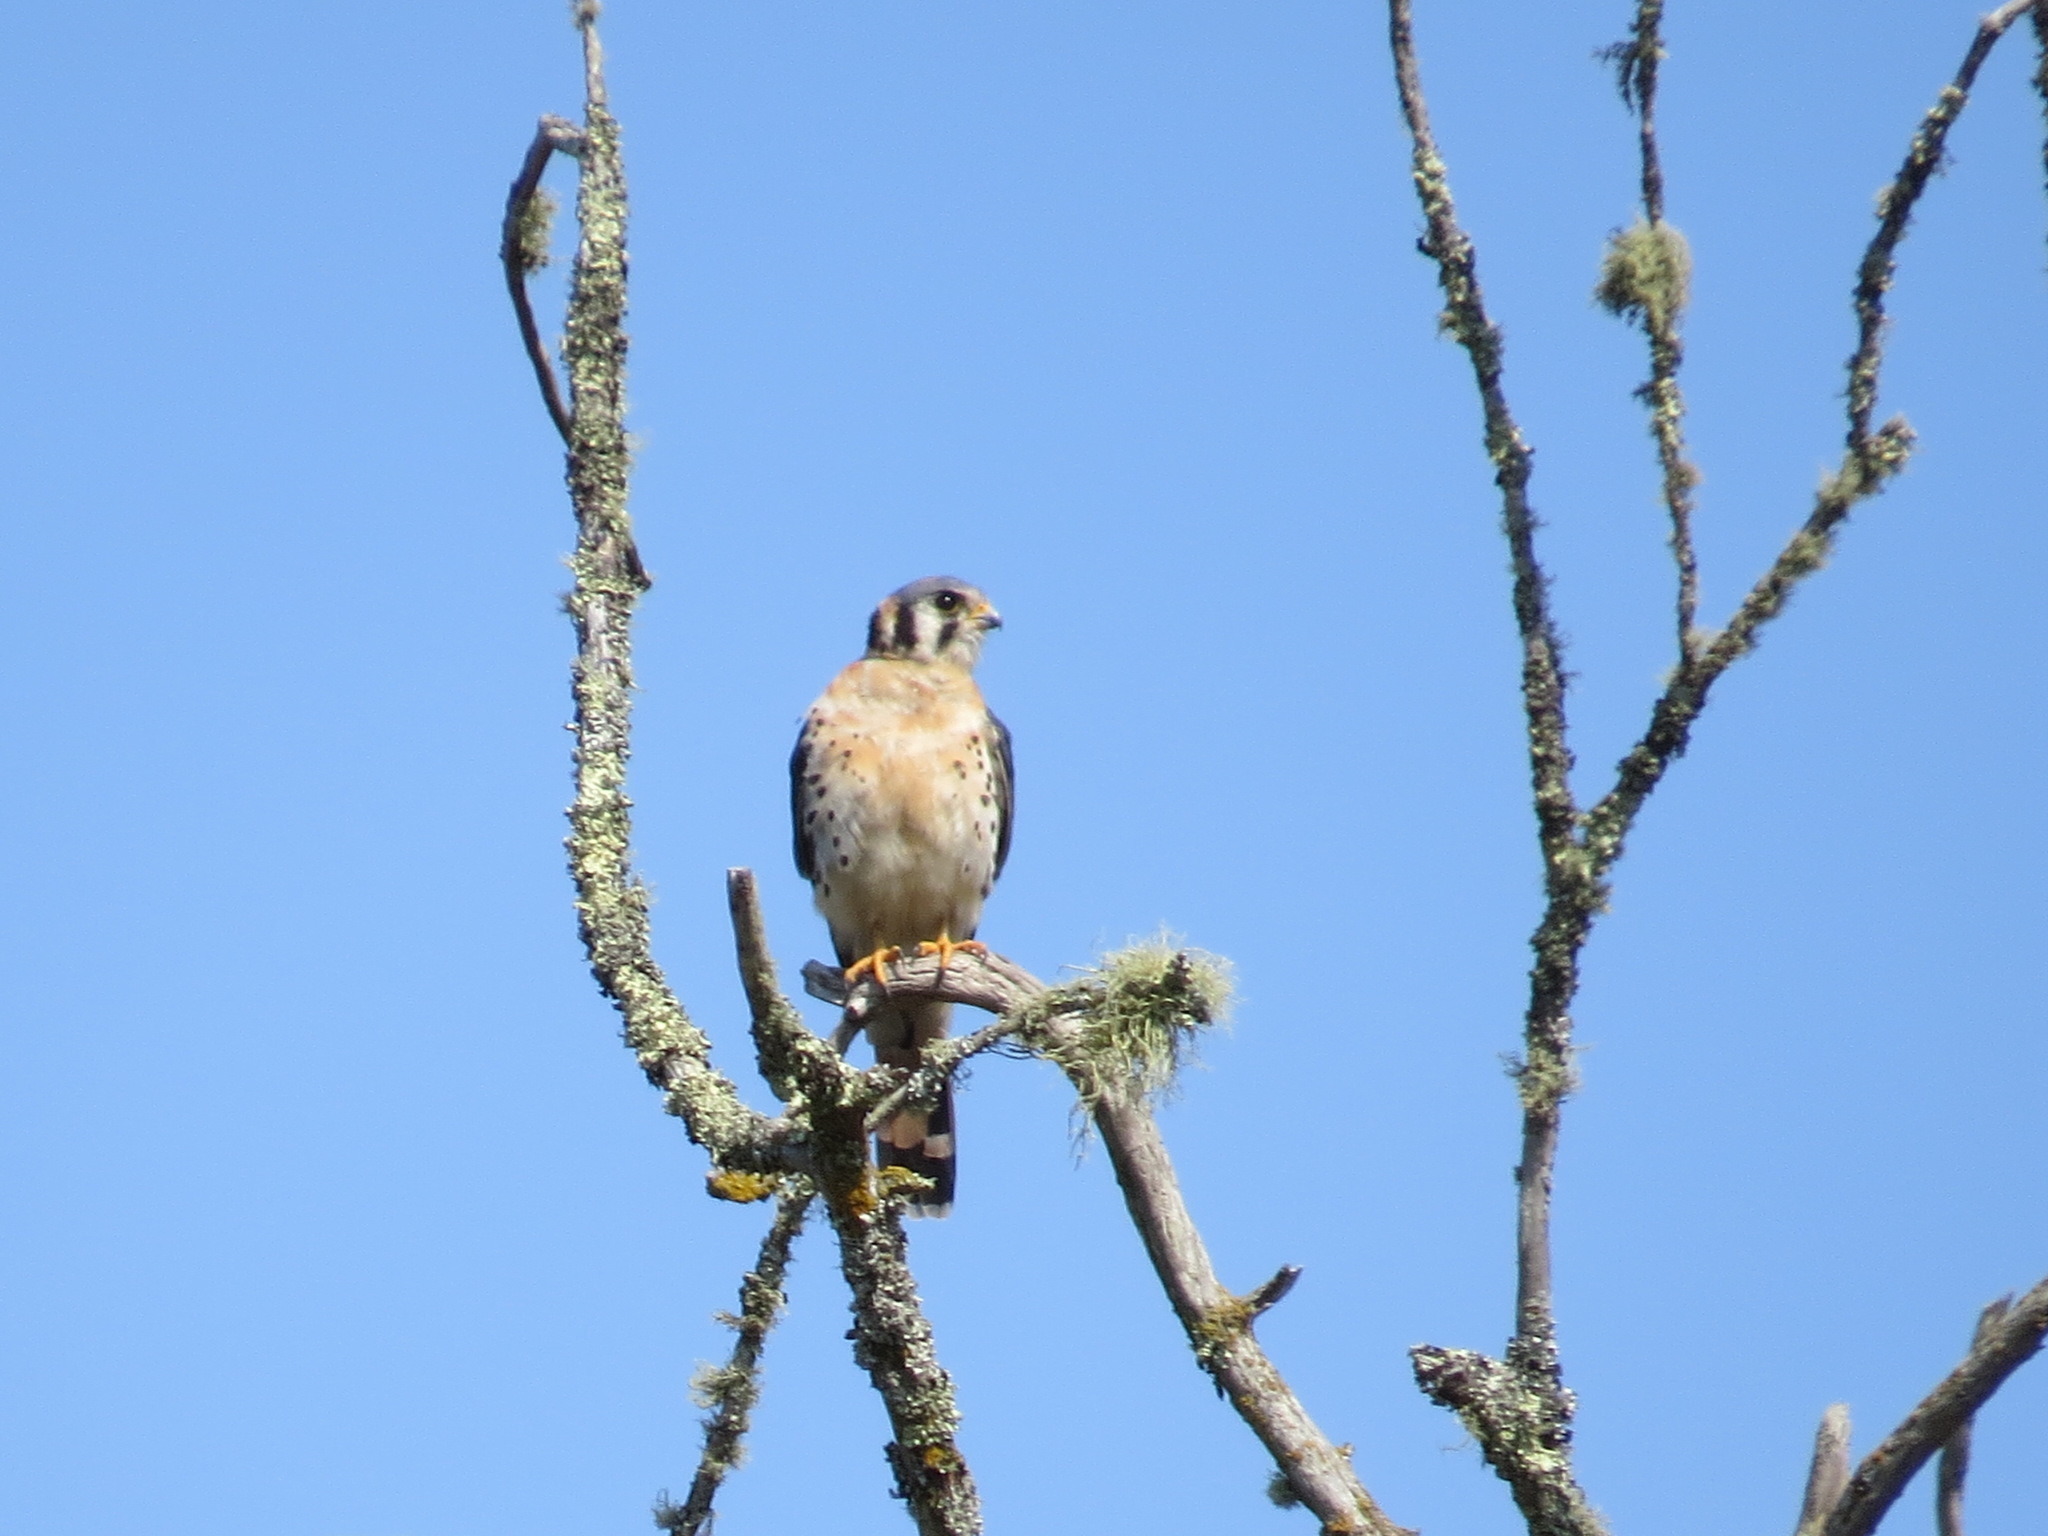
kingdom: Animalia
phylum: Chordata
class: Aves
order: Falconiformes
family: Falconidae
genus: Falco
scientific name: Falco sparverius
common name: American kestrel
